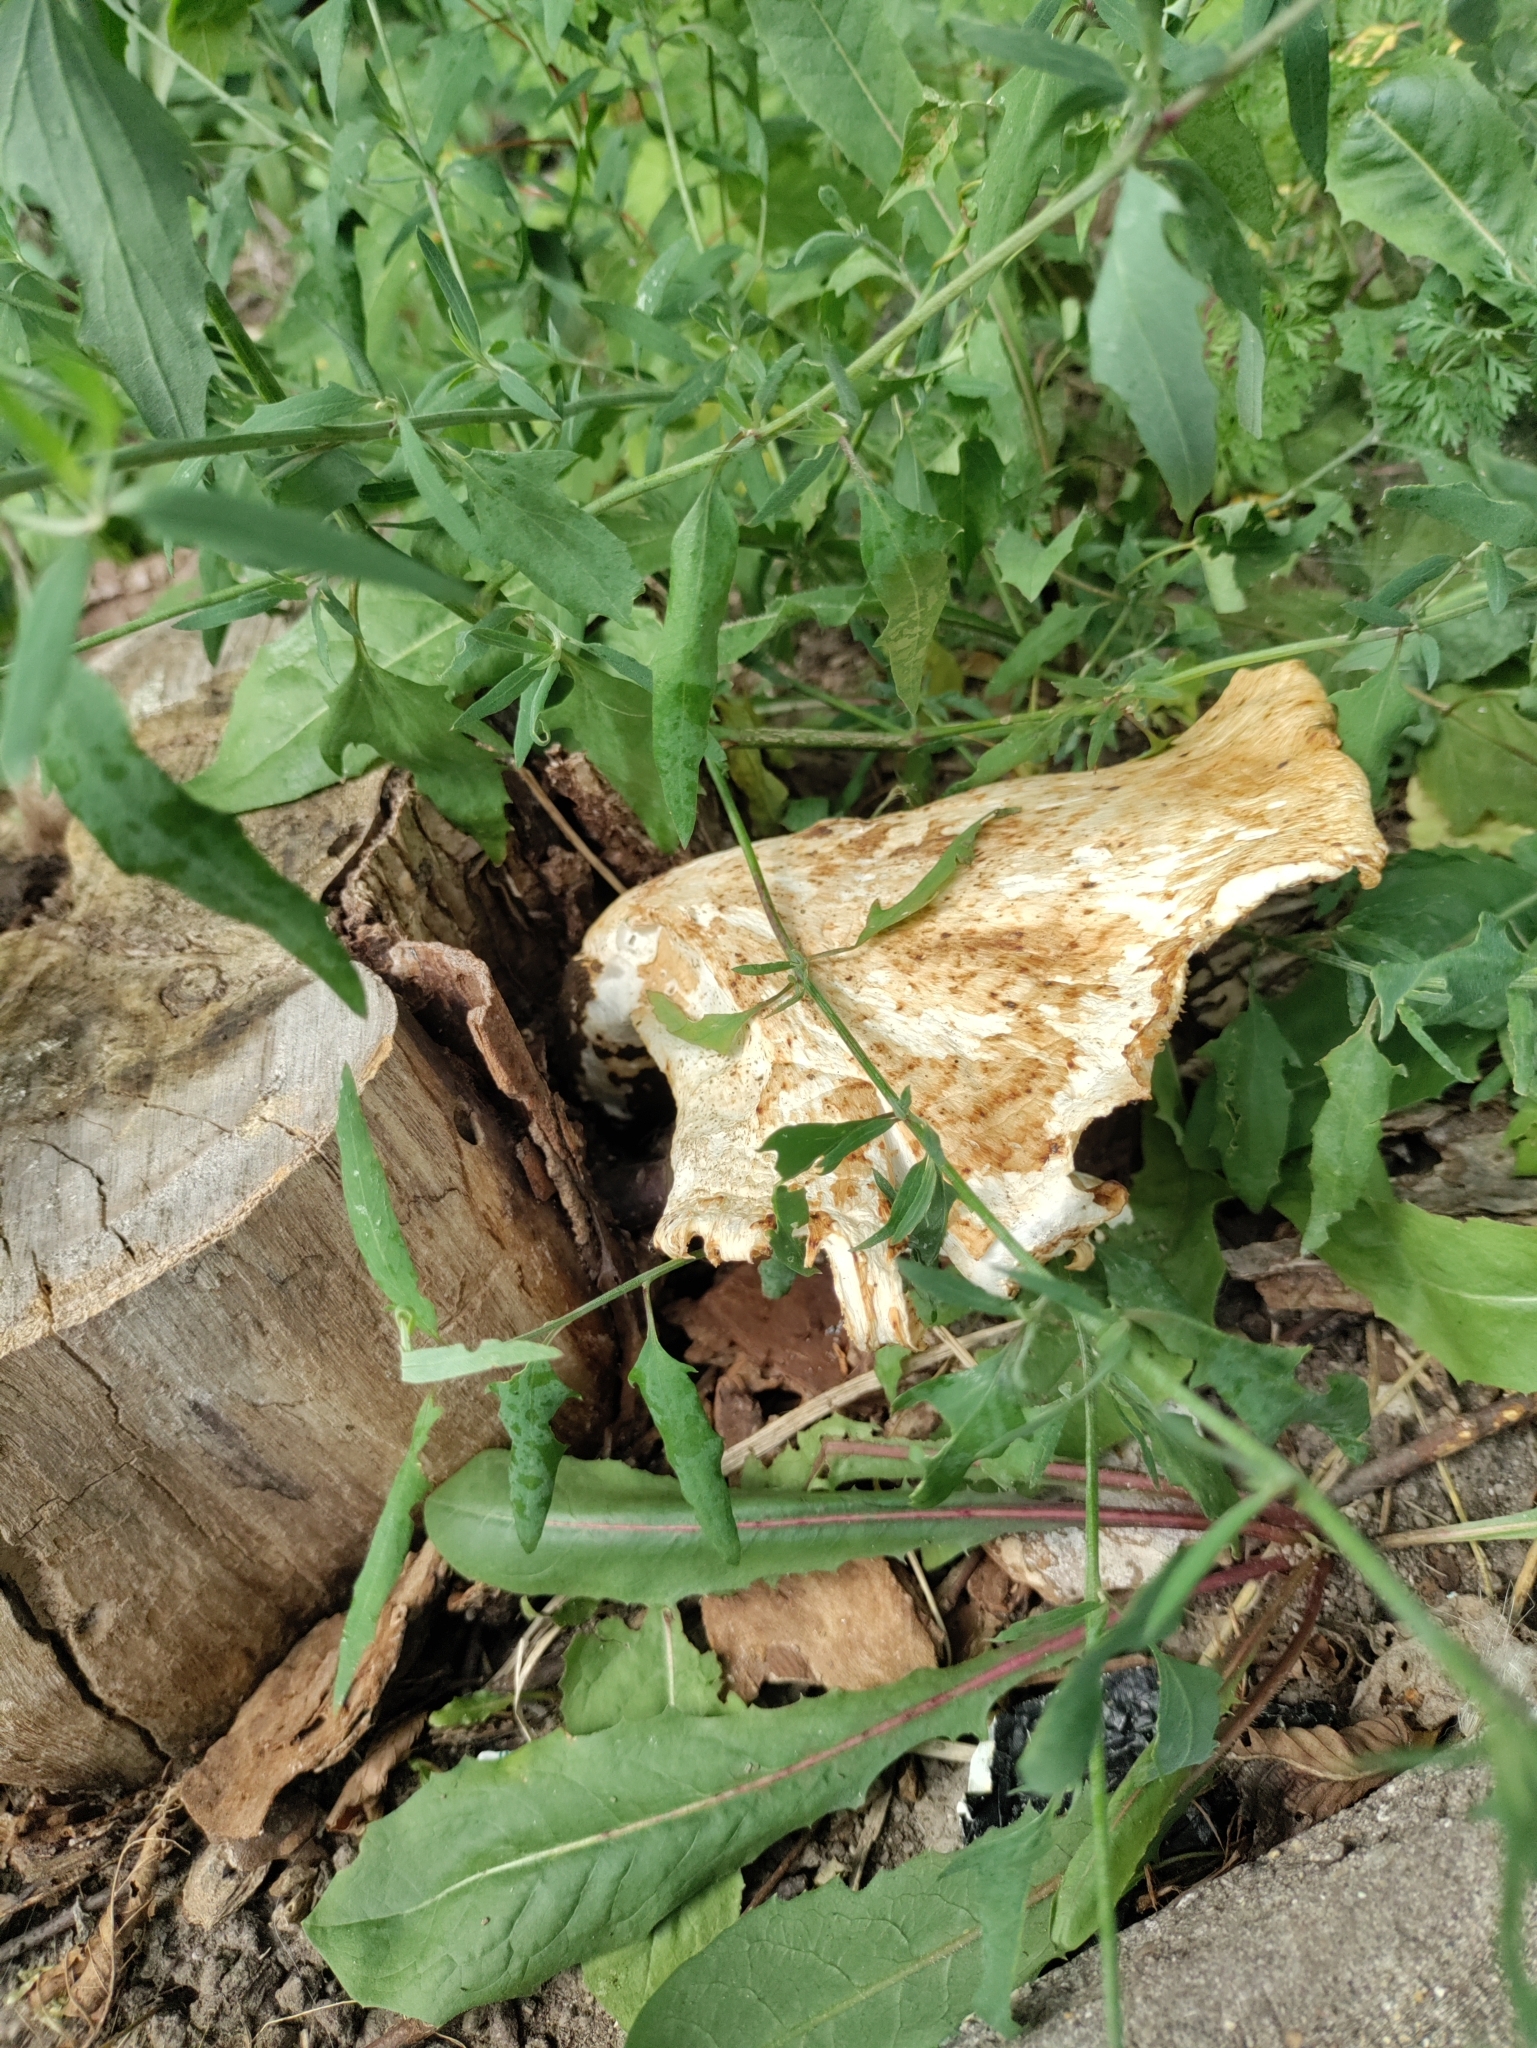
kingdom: Fungi
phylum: Basidiomycota
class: Agaricomycetes
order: Polyporales
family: Polyporaceae
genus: Cerioporus
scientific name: Cerioporus squamosus
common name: Dryad's saddle
